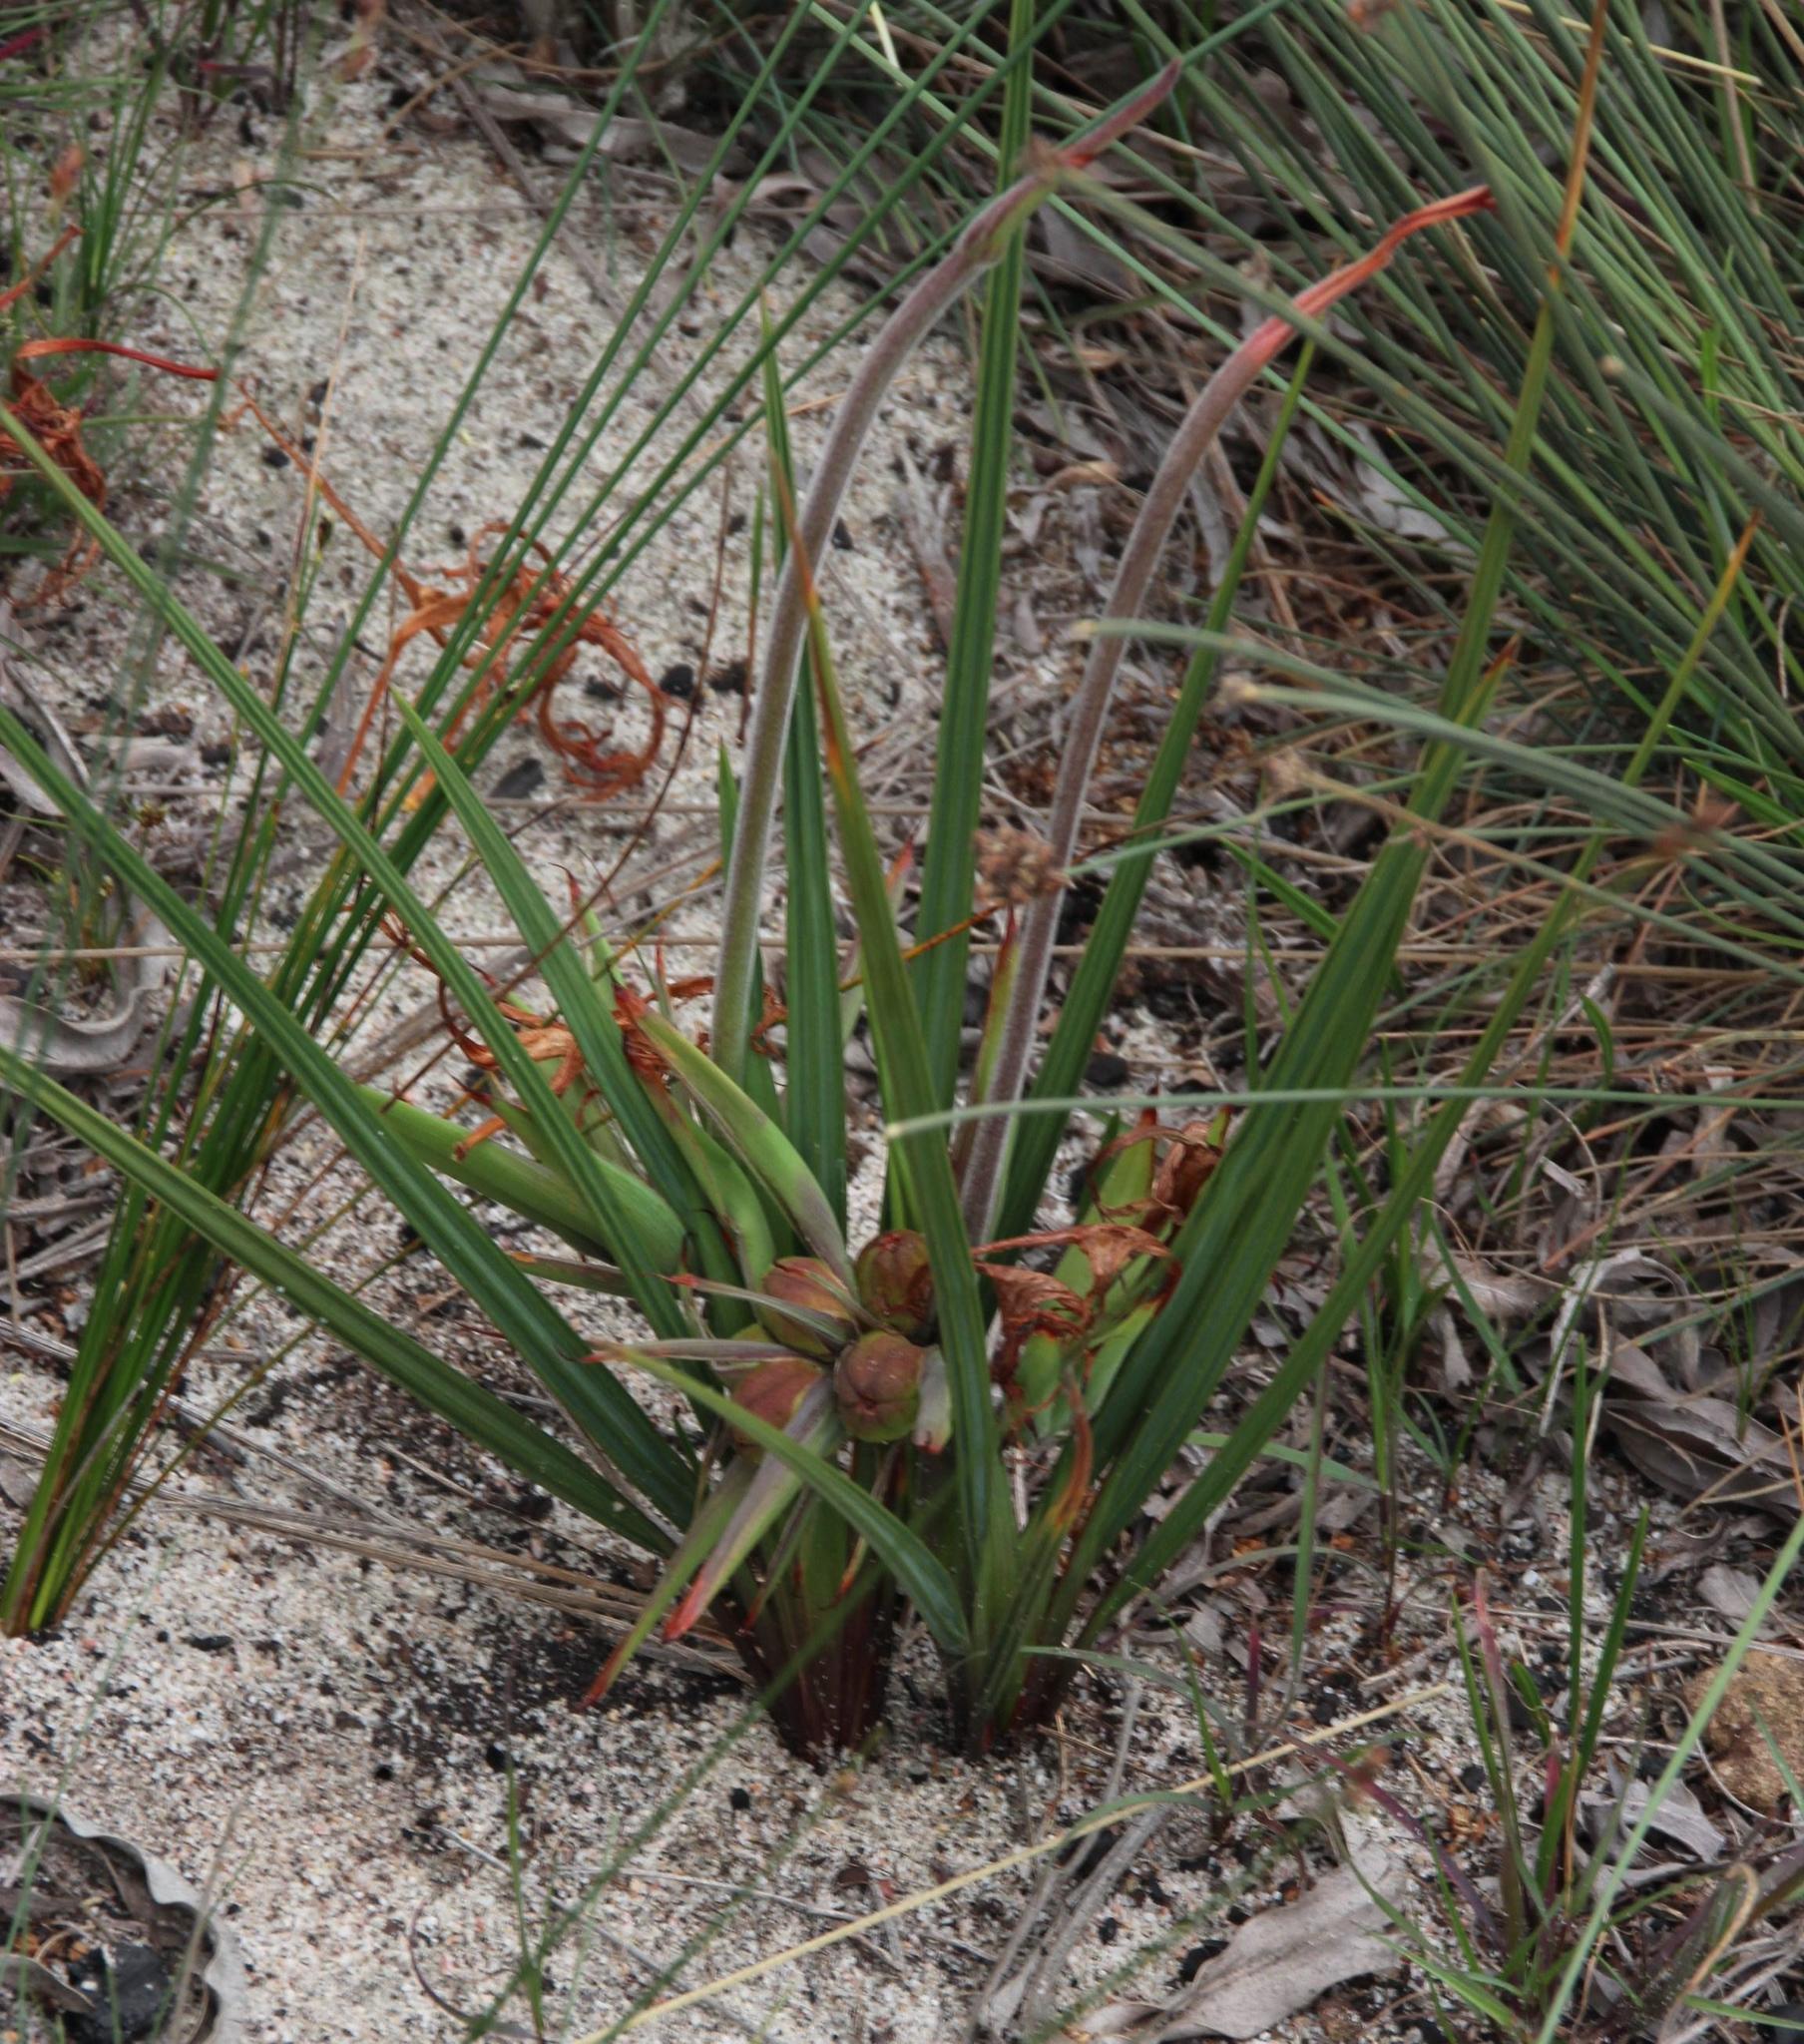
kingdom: Plantae
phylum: Tracheophyta
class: Liliopsida
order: Asparagales
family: Iridaceae
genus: Babiana
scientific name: Babiana ringens
